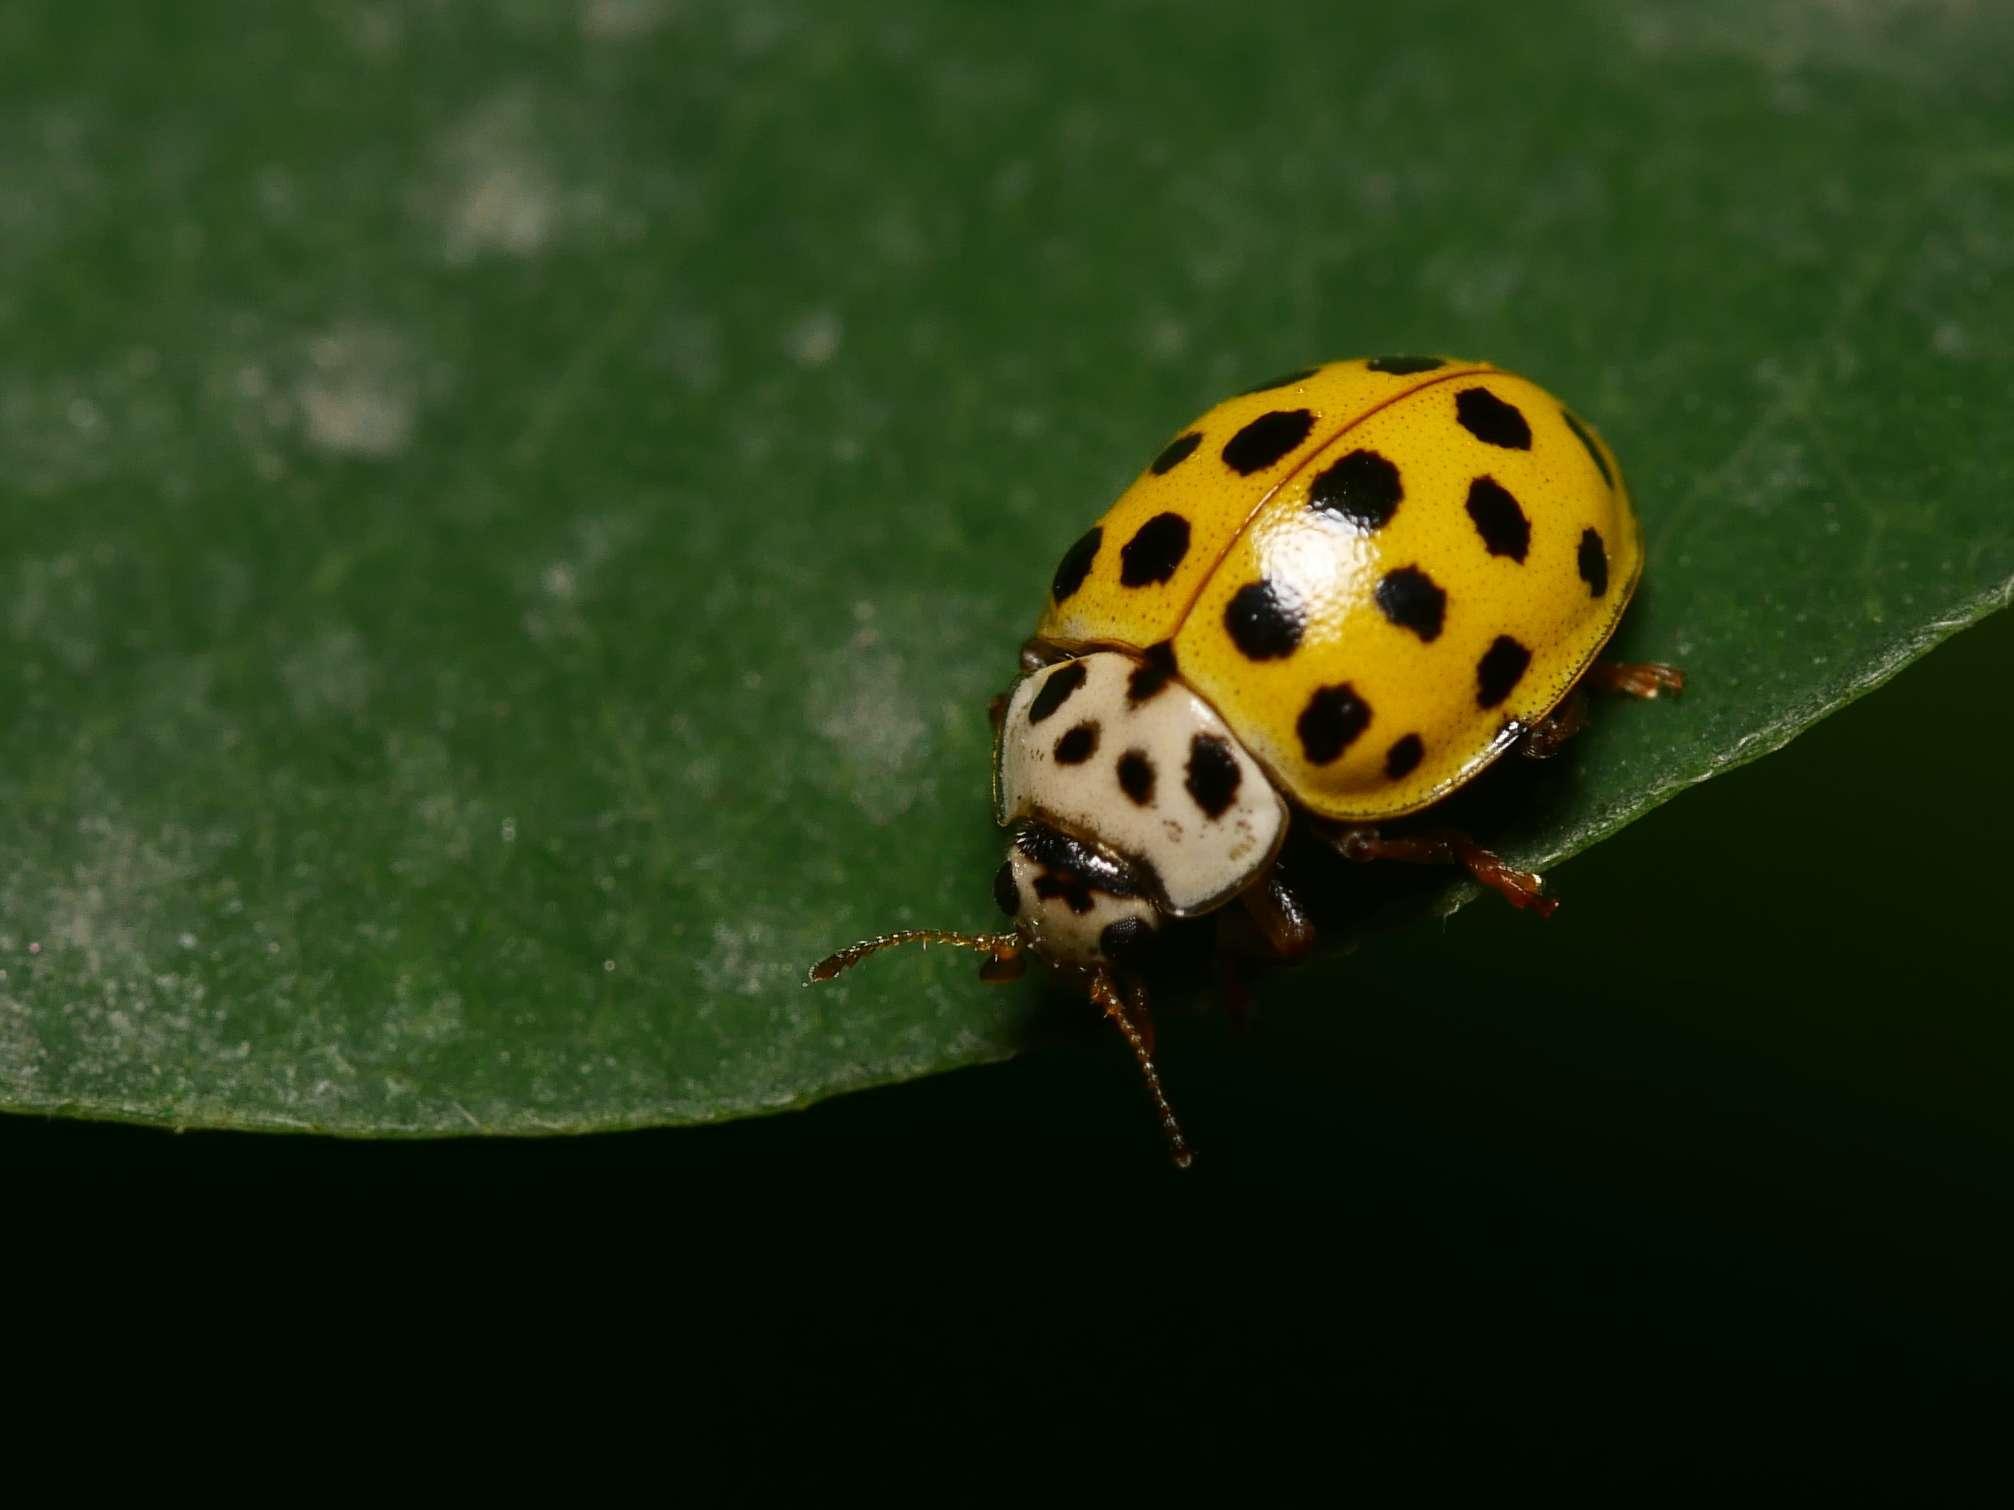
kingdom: Animalia
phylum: Arthropoda
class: Insecta
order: Coleoptera
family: Coccinellidae
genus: Psyllobora
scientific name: Psyllobora vigintiduopunctata
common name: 22-spot ladybird
